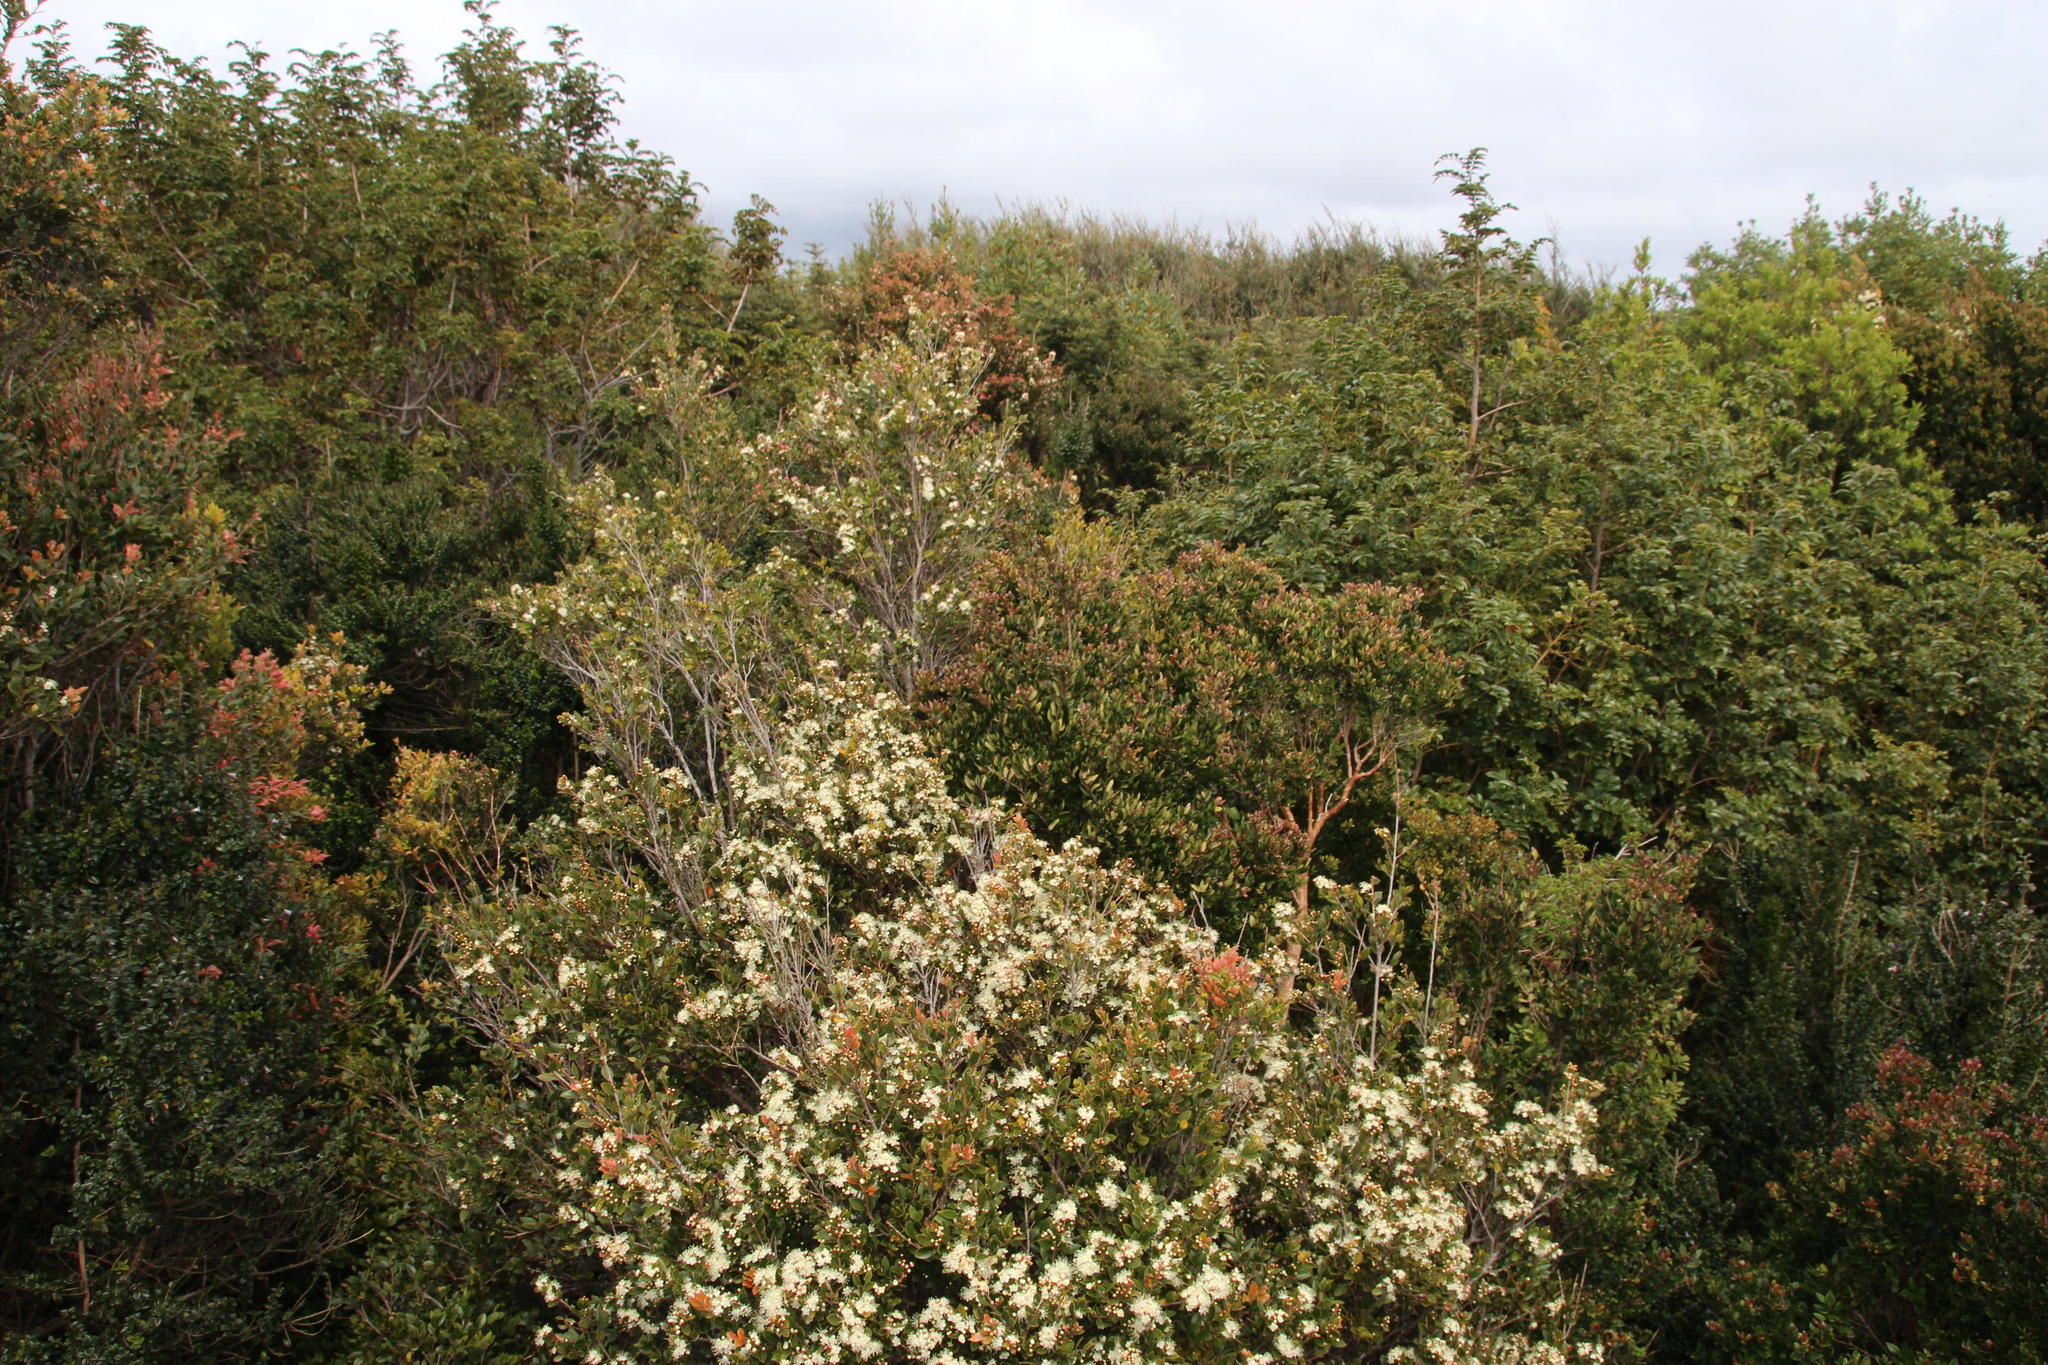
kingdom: Plantae
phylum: Tracheophyta
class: Magnoliopsida
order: Myrtales
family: Myrtaceae
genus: Amomyrtus
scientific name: Amomyrtus luma
